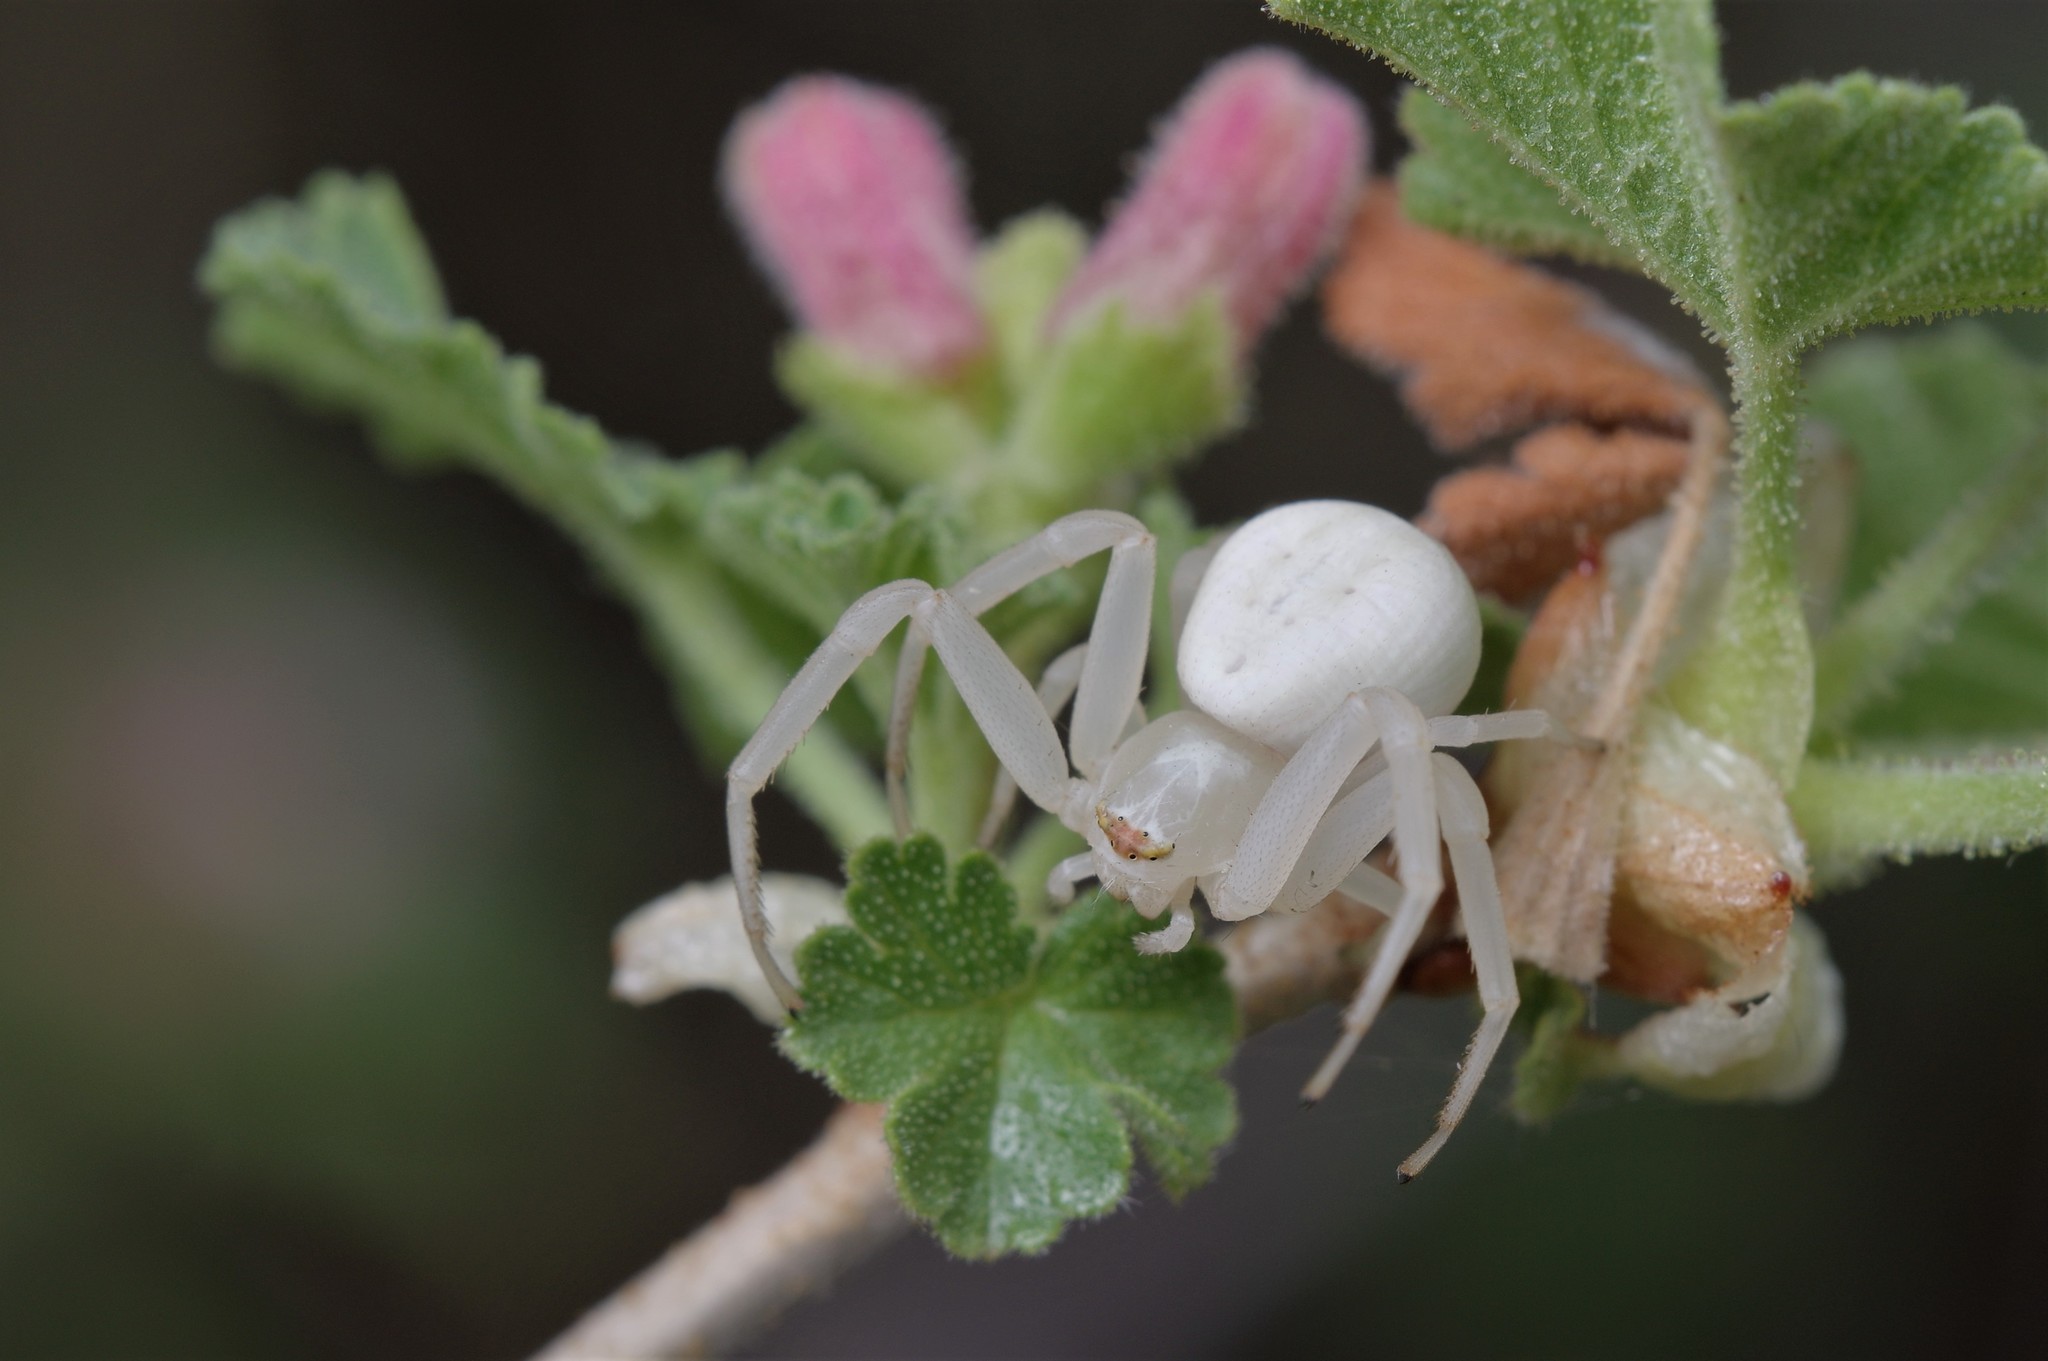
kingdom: Animalia
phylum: Arthropoda
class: Arachnida
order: Araneae
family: Thomisidae
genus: Misumena
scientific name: Misumena vatia
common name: Goldenrod crab spider
